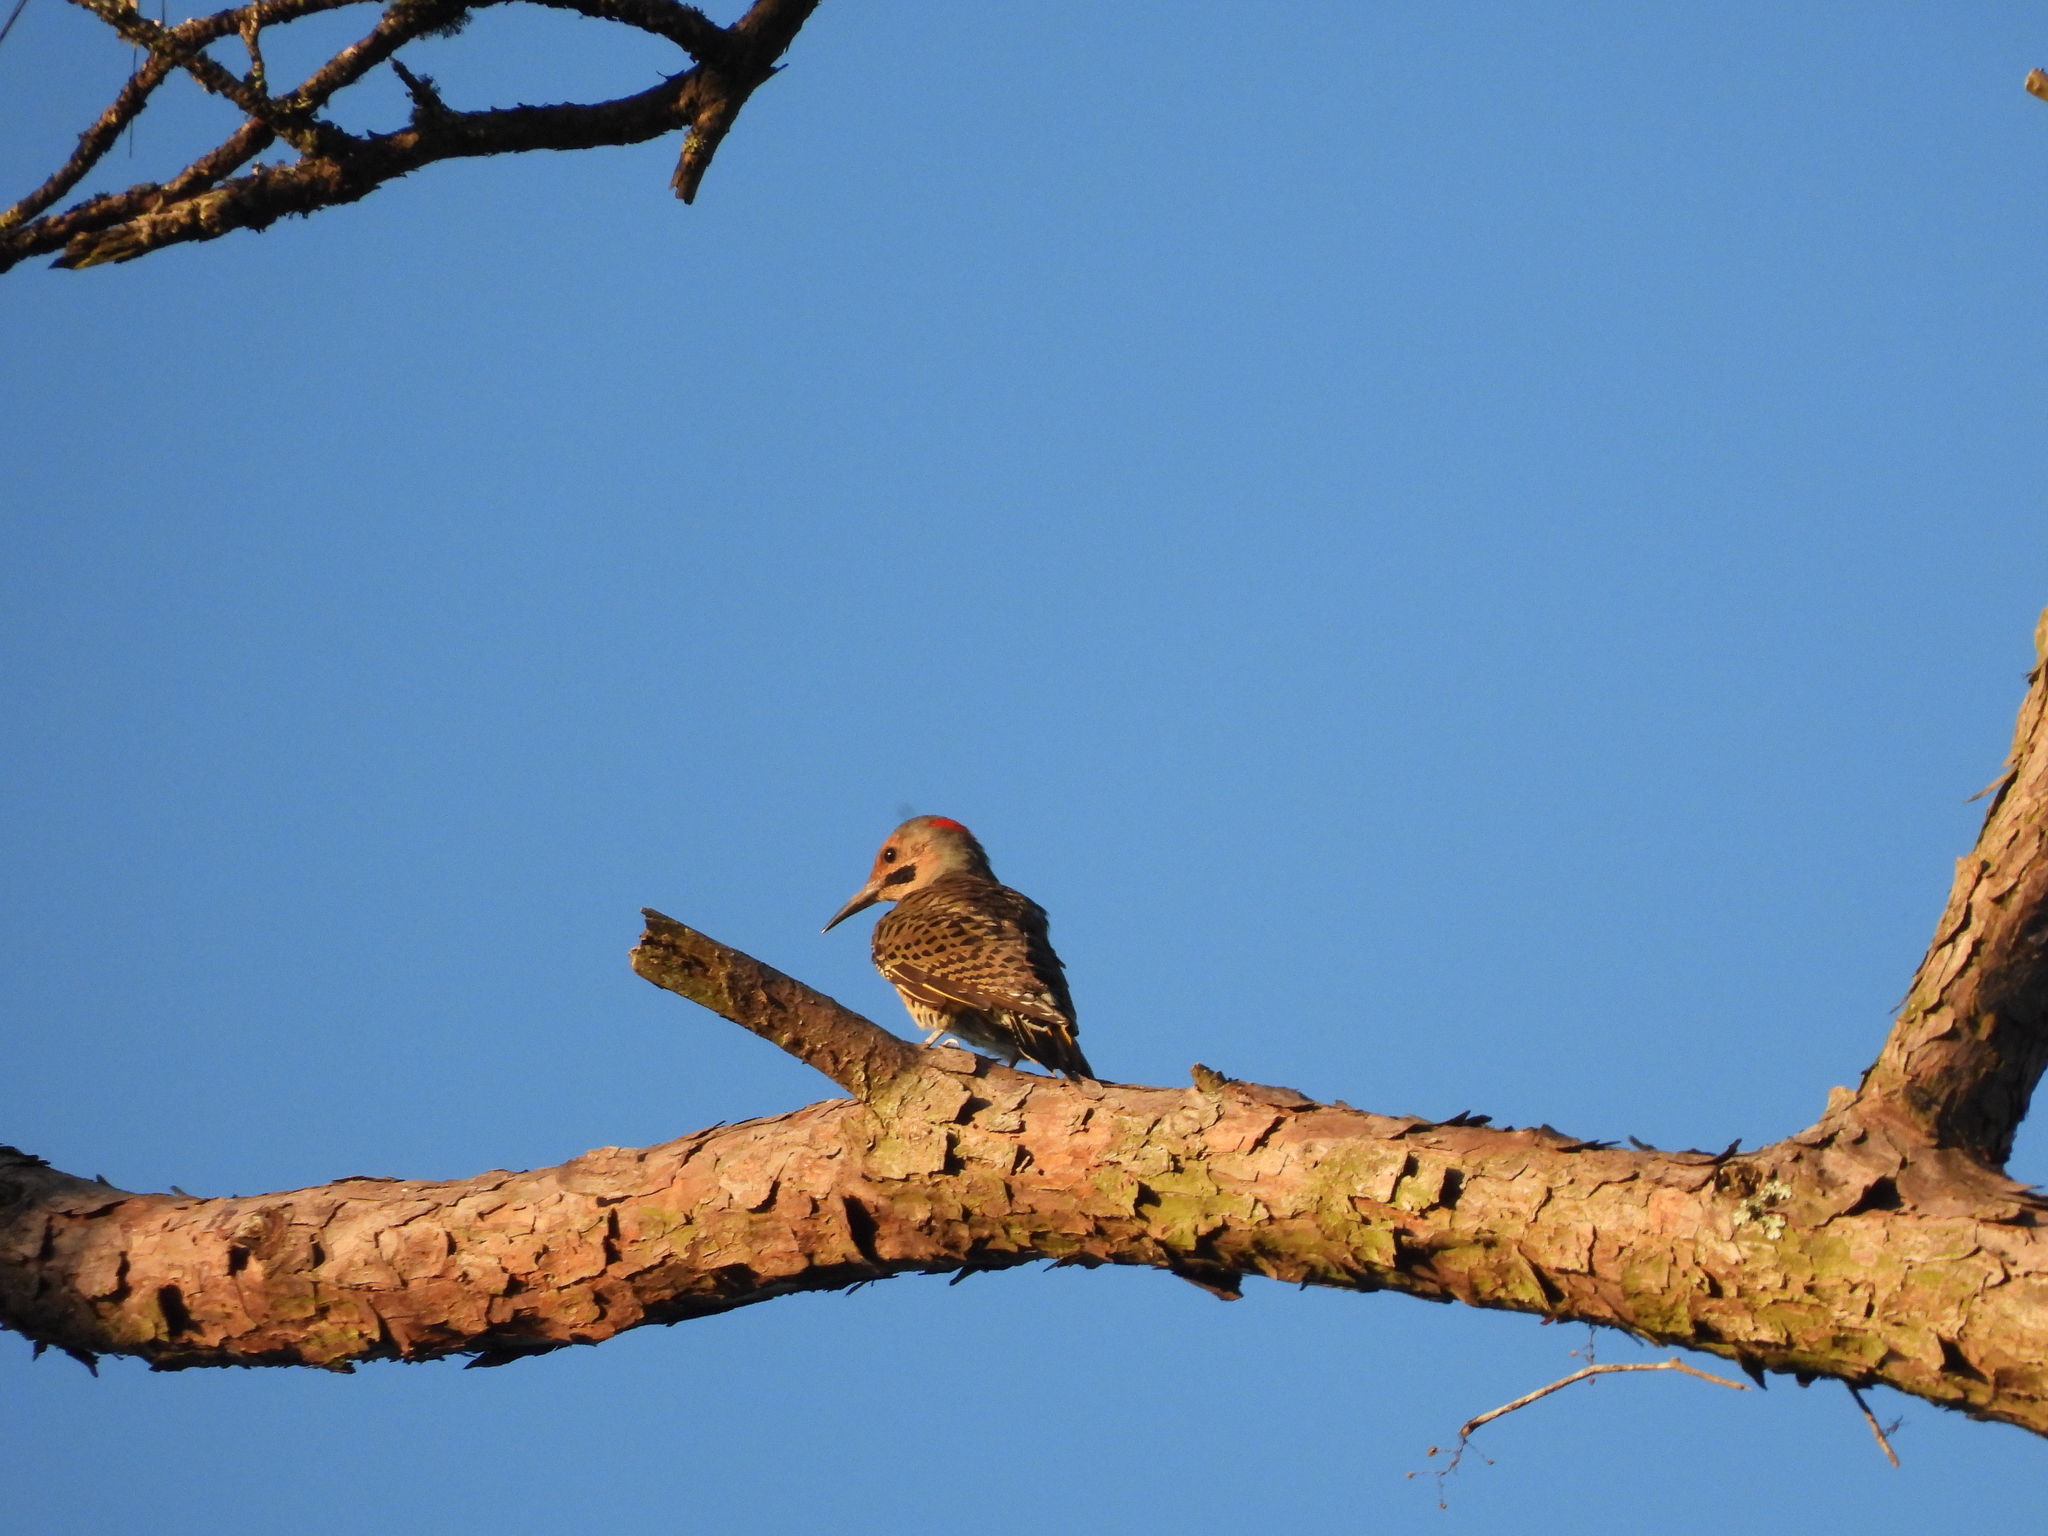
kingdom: Animalia
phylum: Chordata
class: Aves
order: Piciformes
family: Picidae
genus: Colaptes
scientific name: Colaptes auratus
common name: Northern flicker
